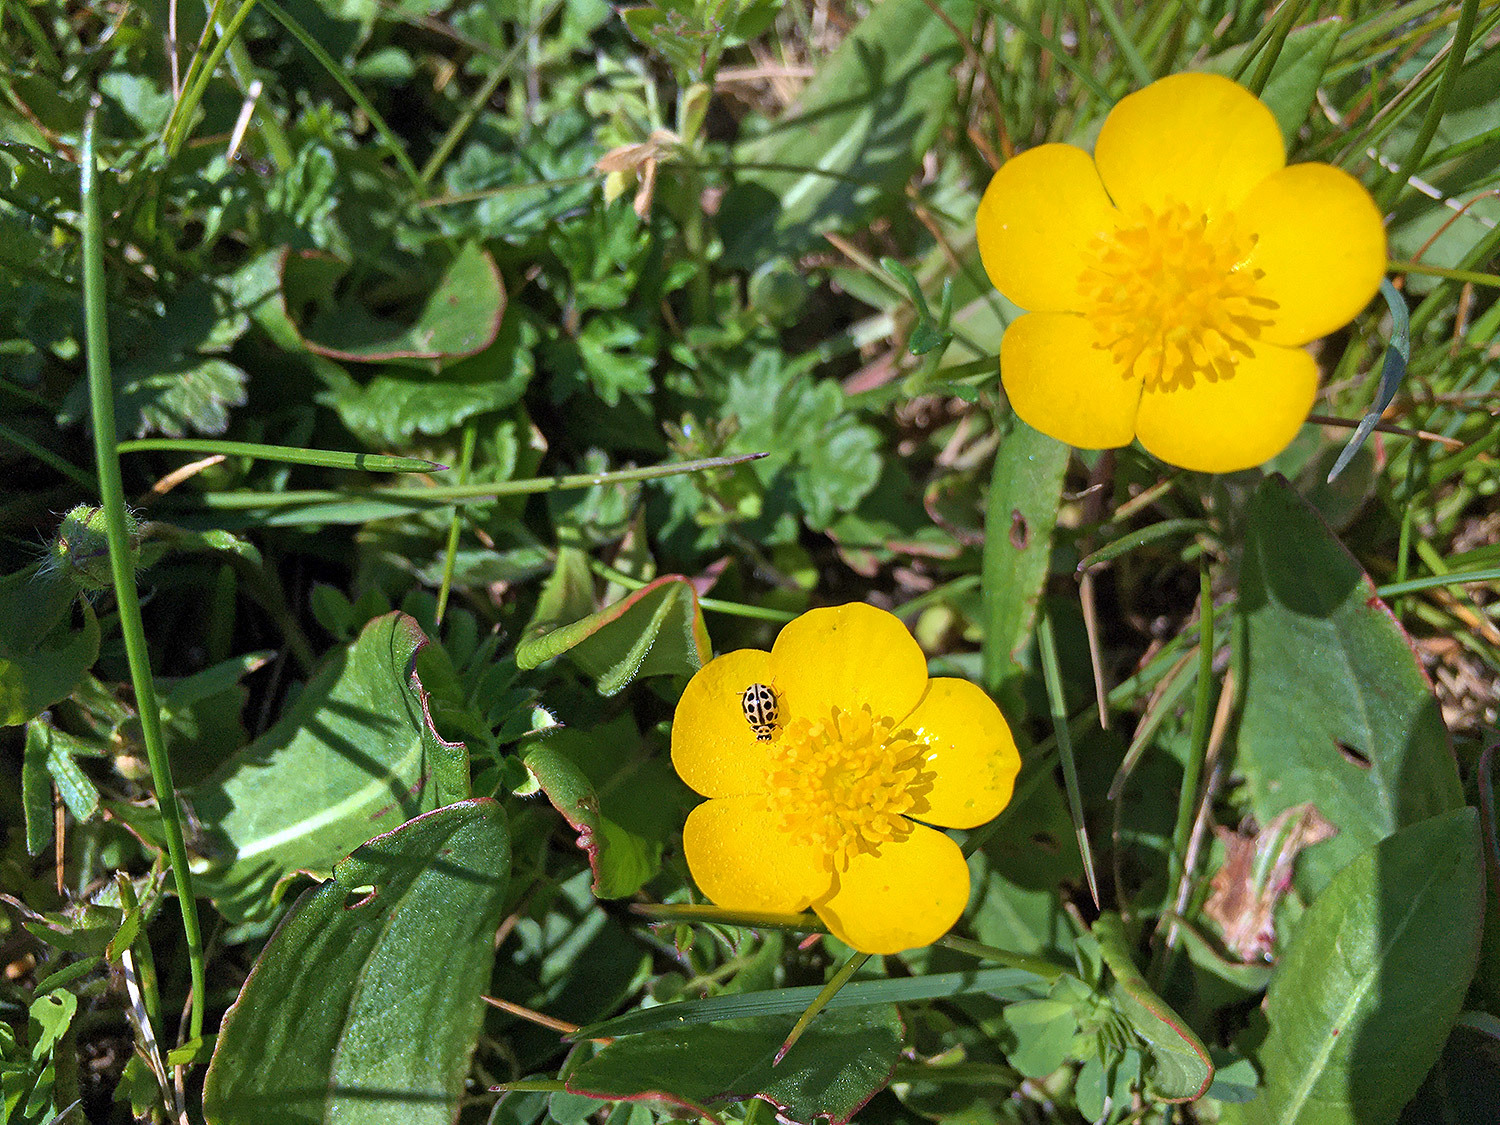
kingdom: Animalia
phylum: Arthropoda
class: Insecta
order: Coleoptera
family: Coccinellidae
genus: Tytthaspis
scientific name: Tytthaspis sedecimpunctata
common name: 16-spot ladybird
